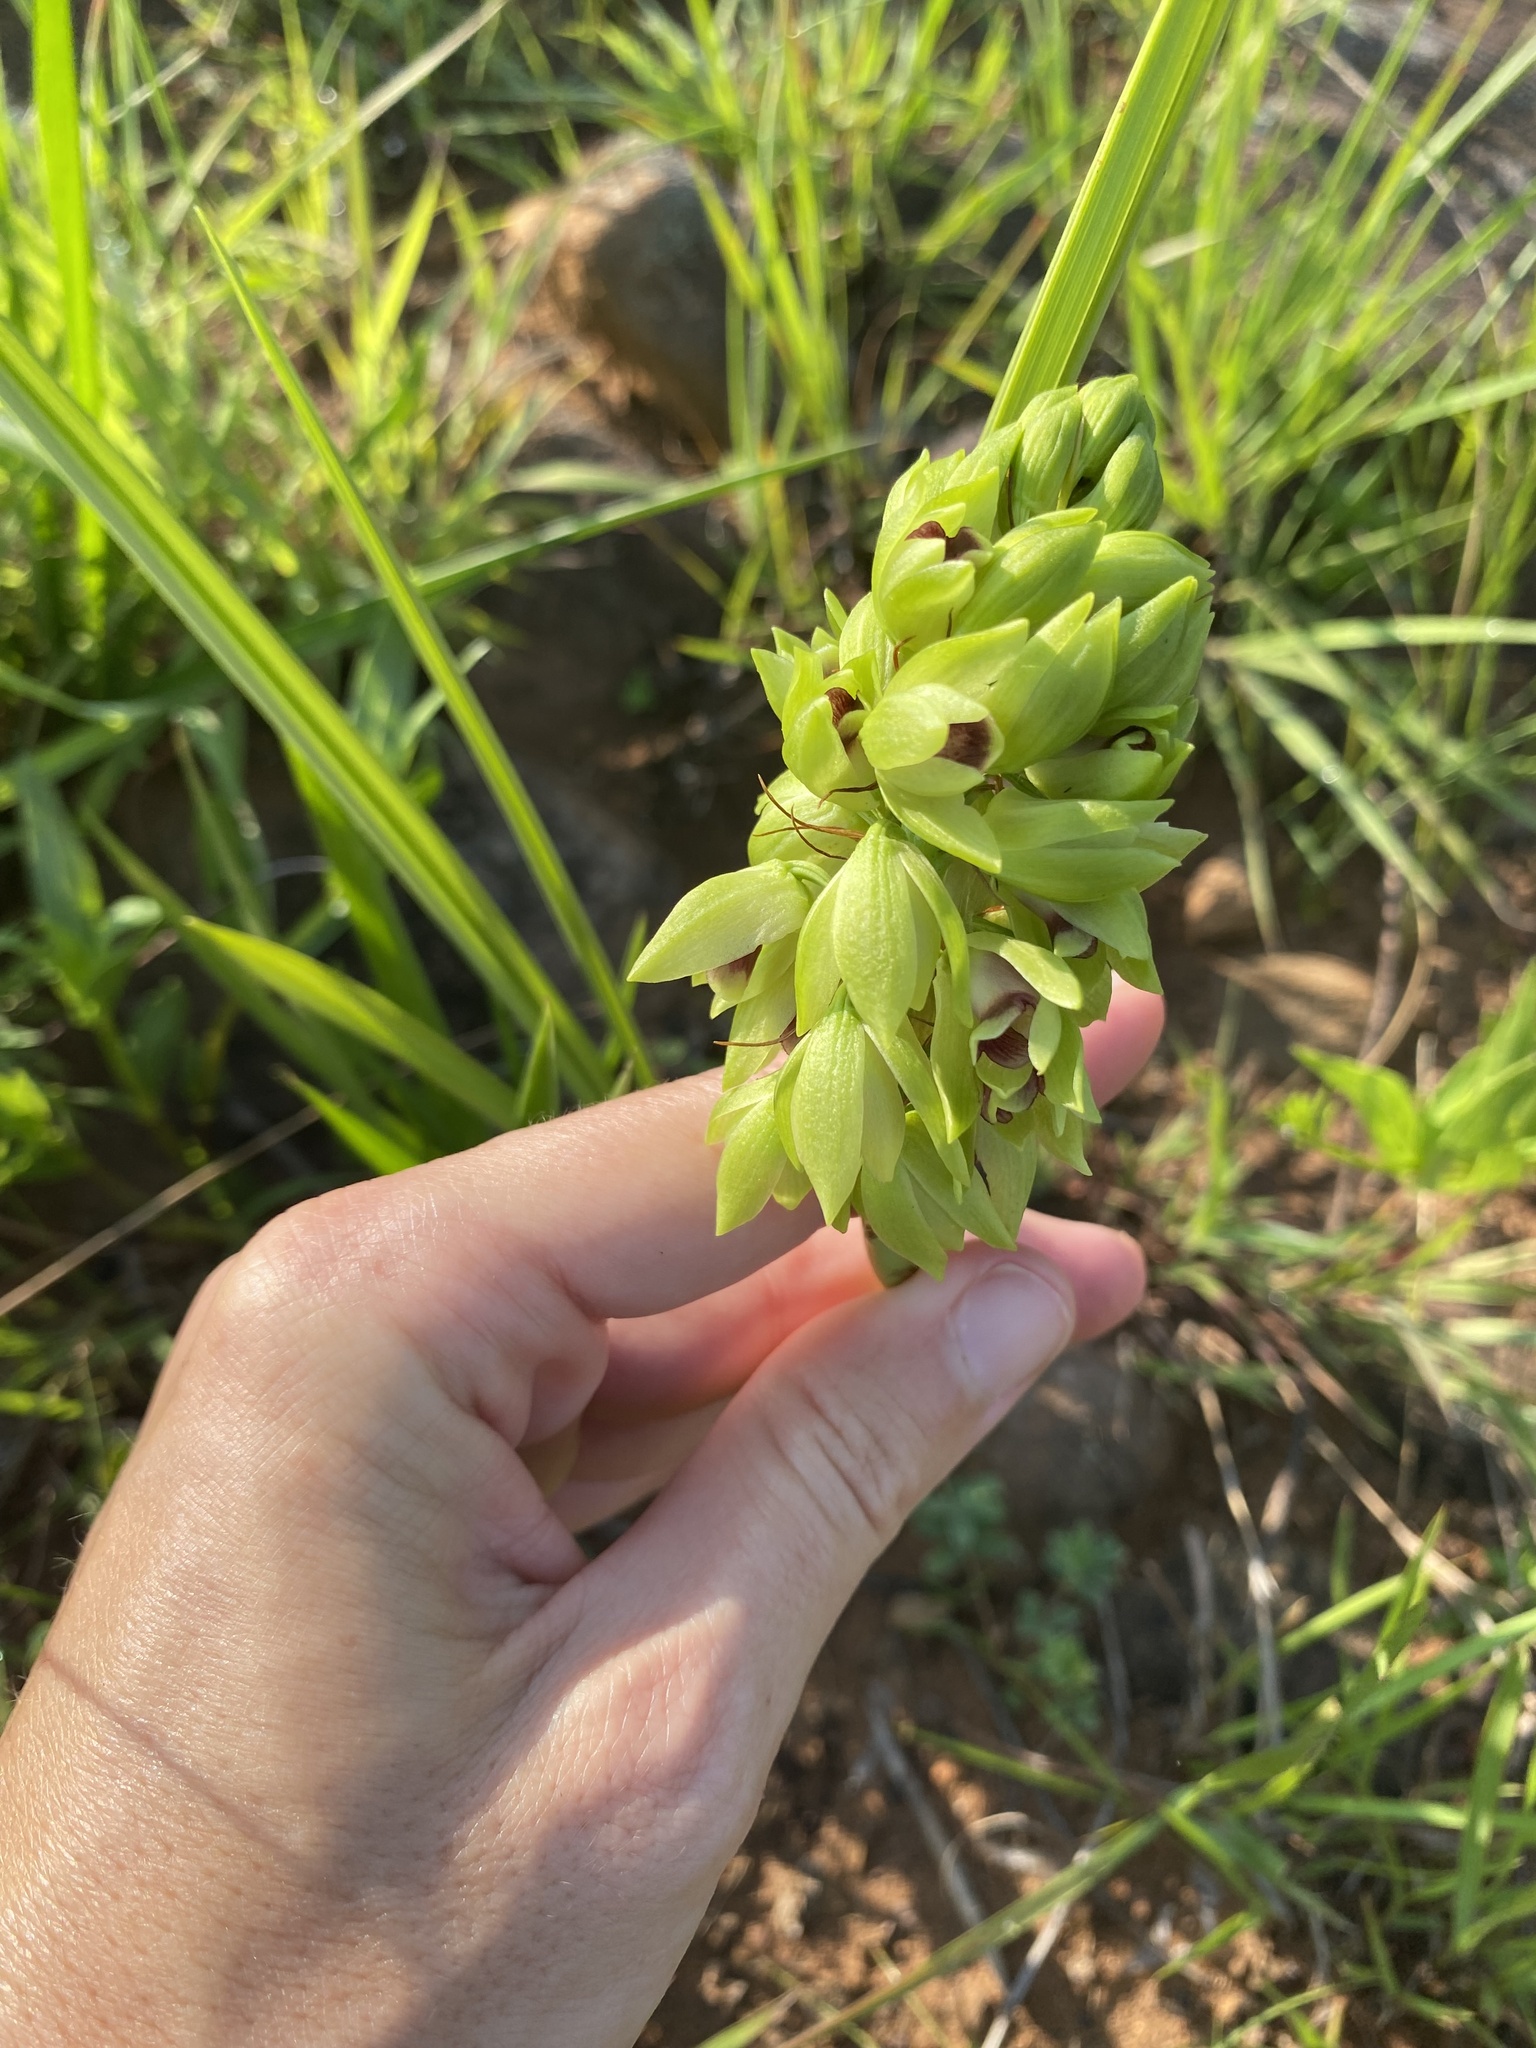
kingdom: Plantae
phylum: Tracheophyta
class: Liliopsida
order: Asparagales
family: Orchidaceae
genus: Eulophia
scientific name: Eulophia foliosa
